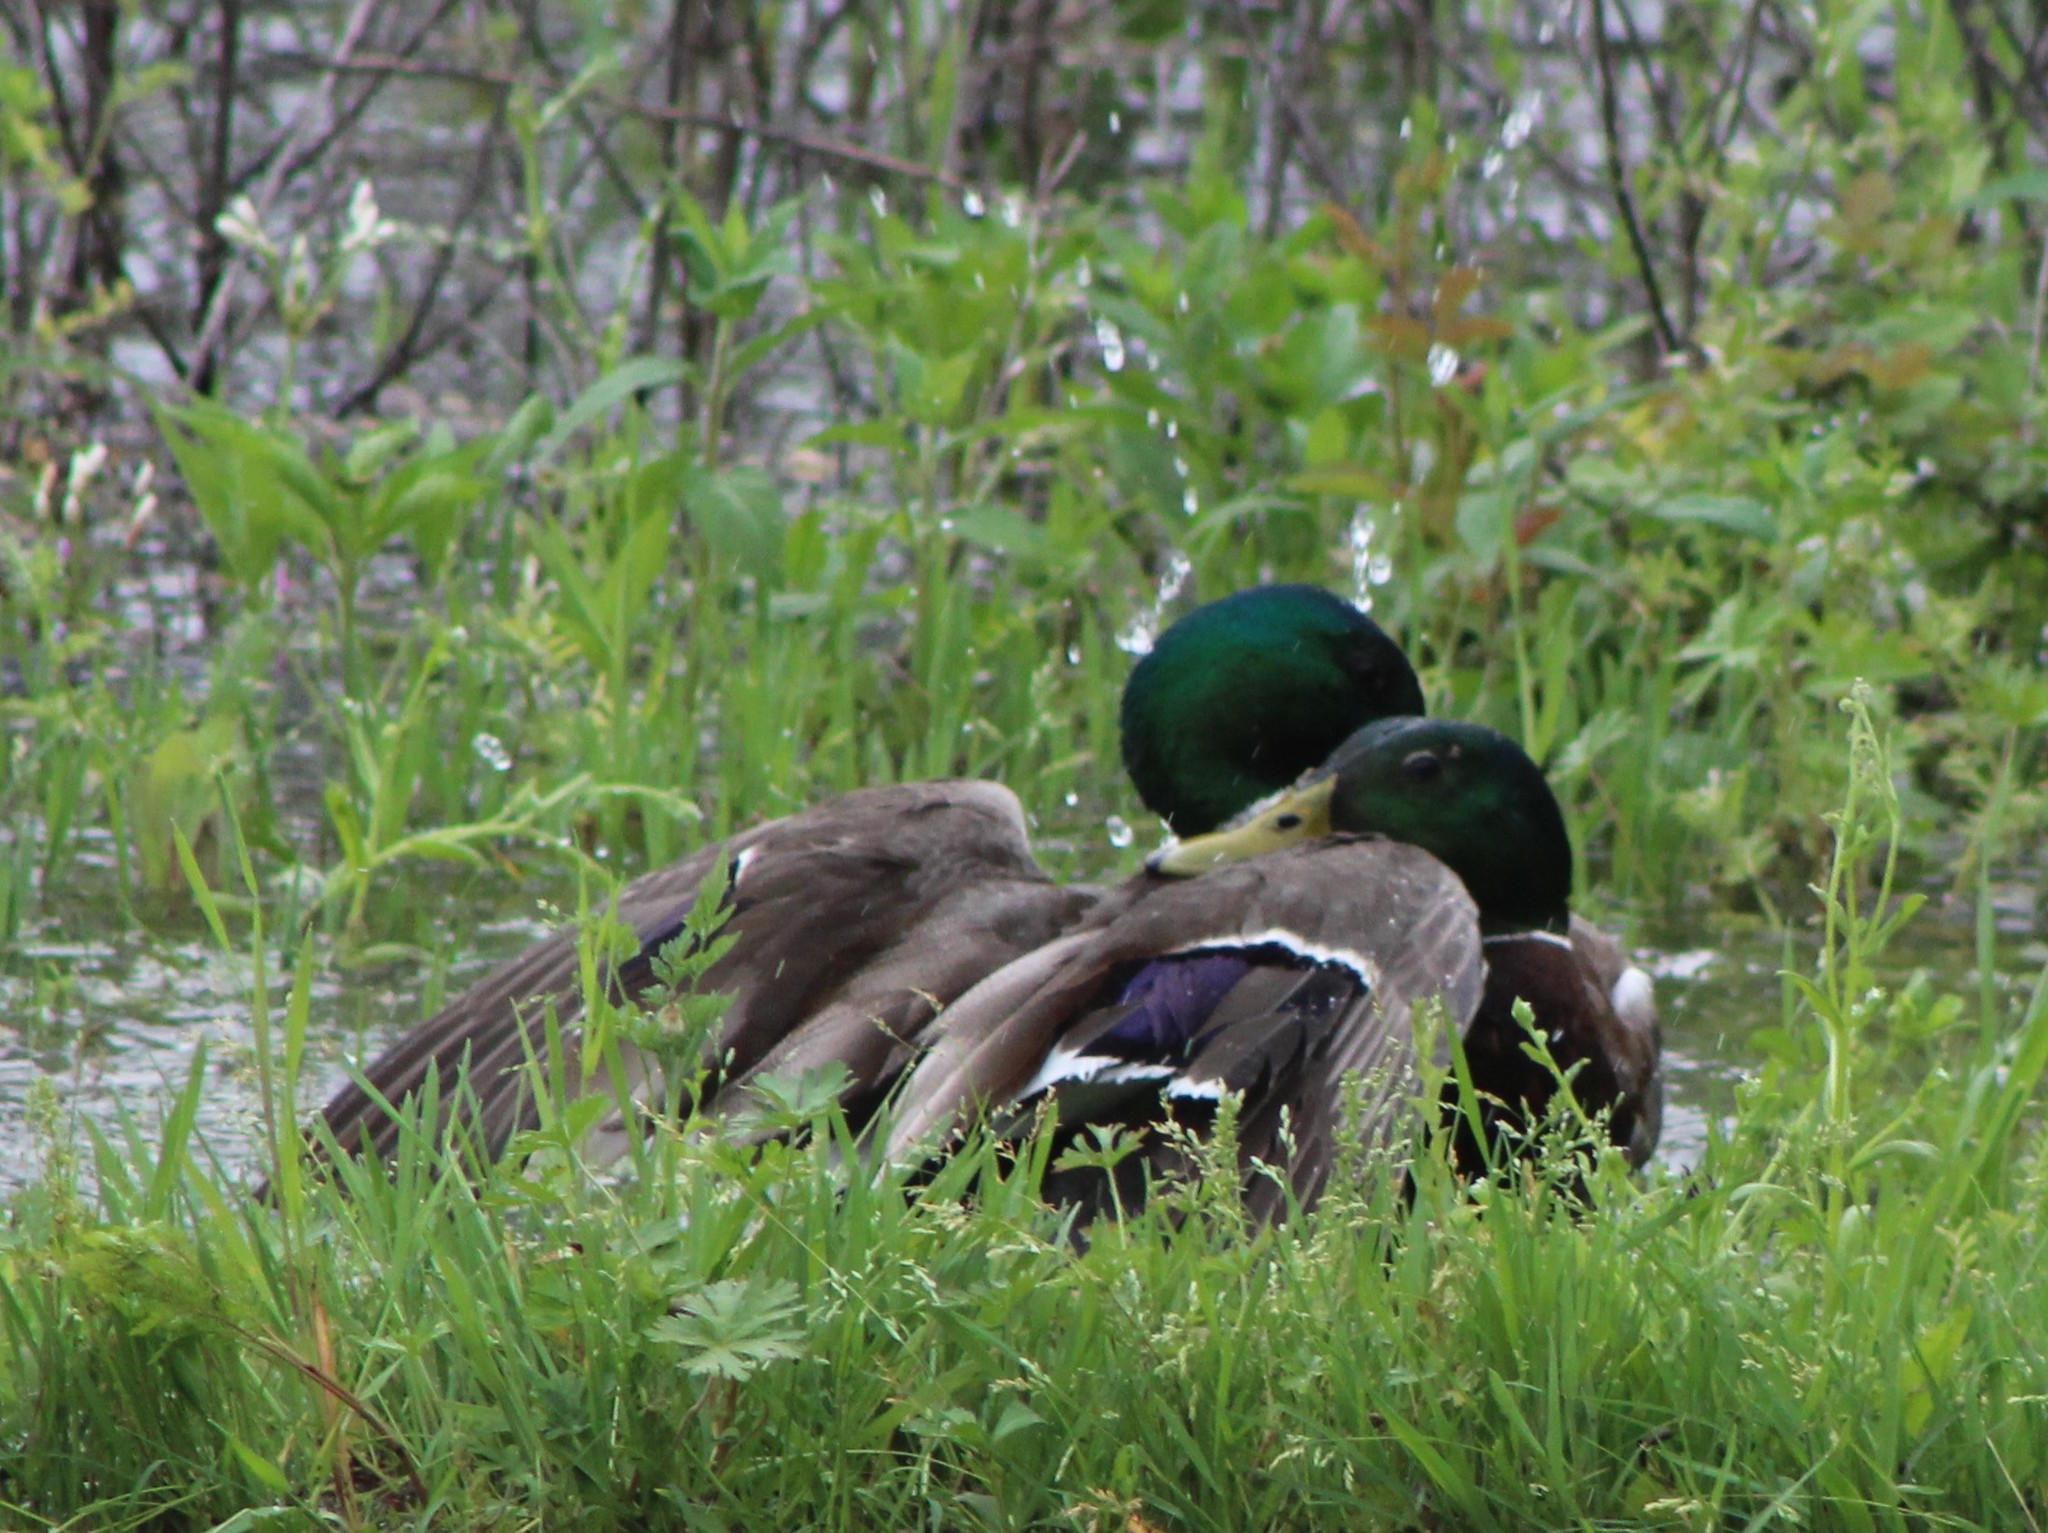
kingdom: Animalia
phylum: Chordata
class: Aves
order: Anseriformes
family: Anatidae
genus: Anas
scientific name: Anas platyrhynchos
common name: Mallard
